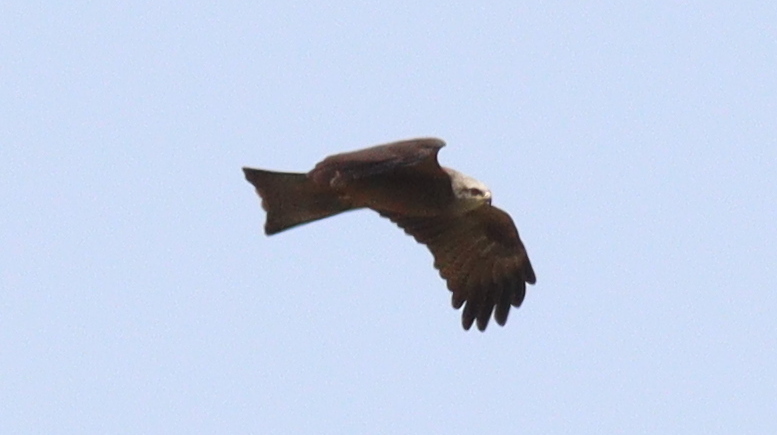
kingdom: Animalia
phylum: Chordata
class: Aves
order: Accipitriformes
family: Accipitridae
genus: Milvus
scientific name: Milvus migrans
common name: Black kite
